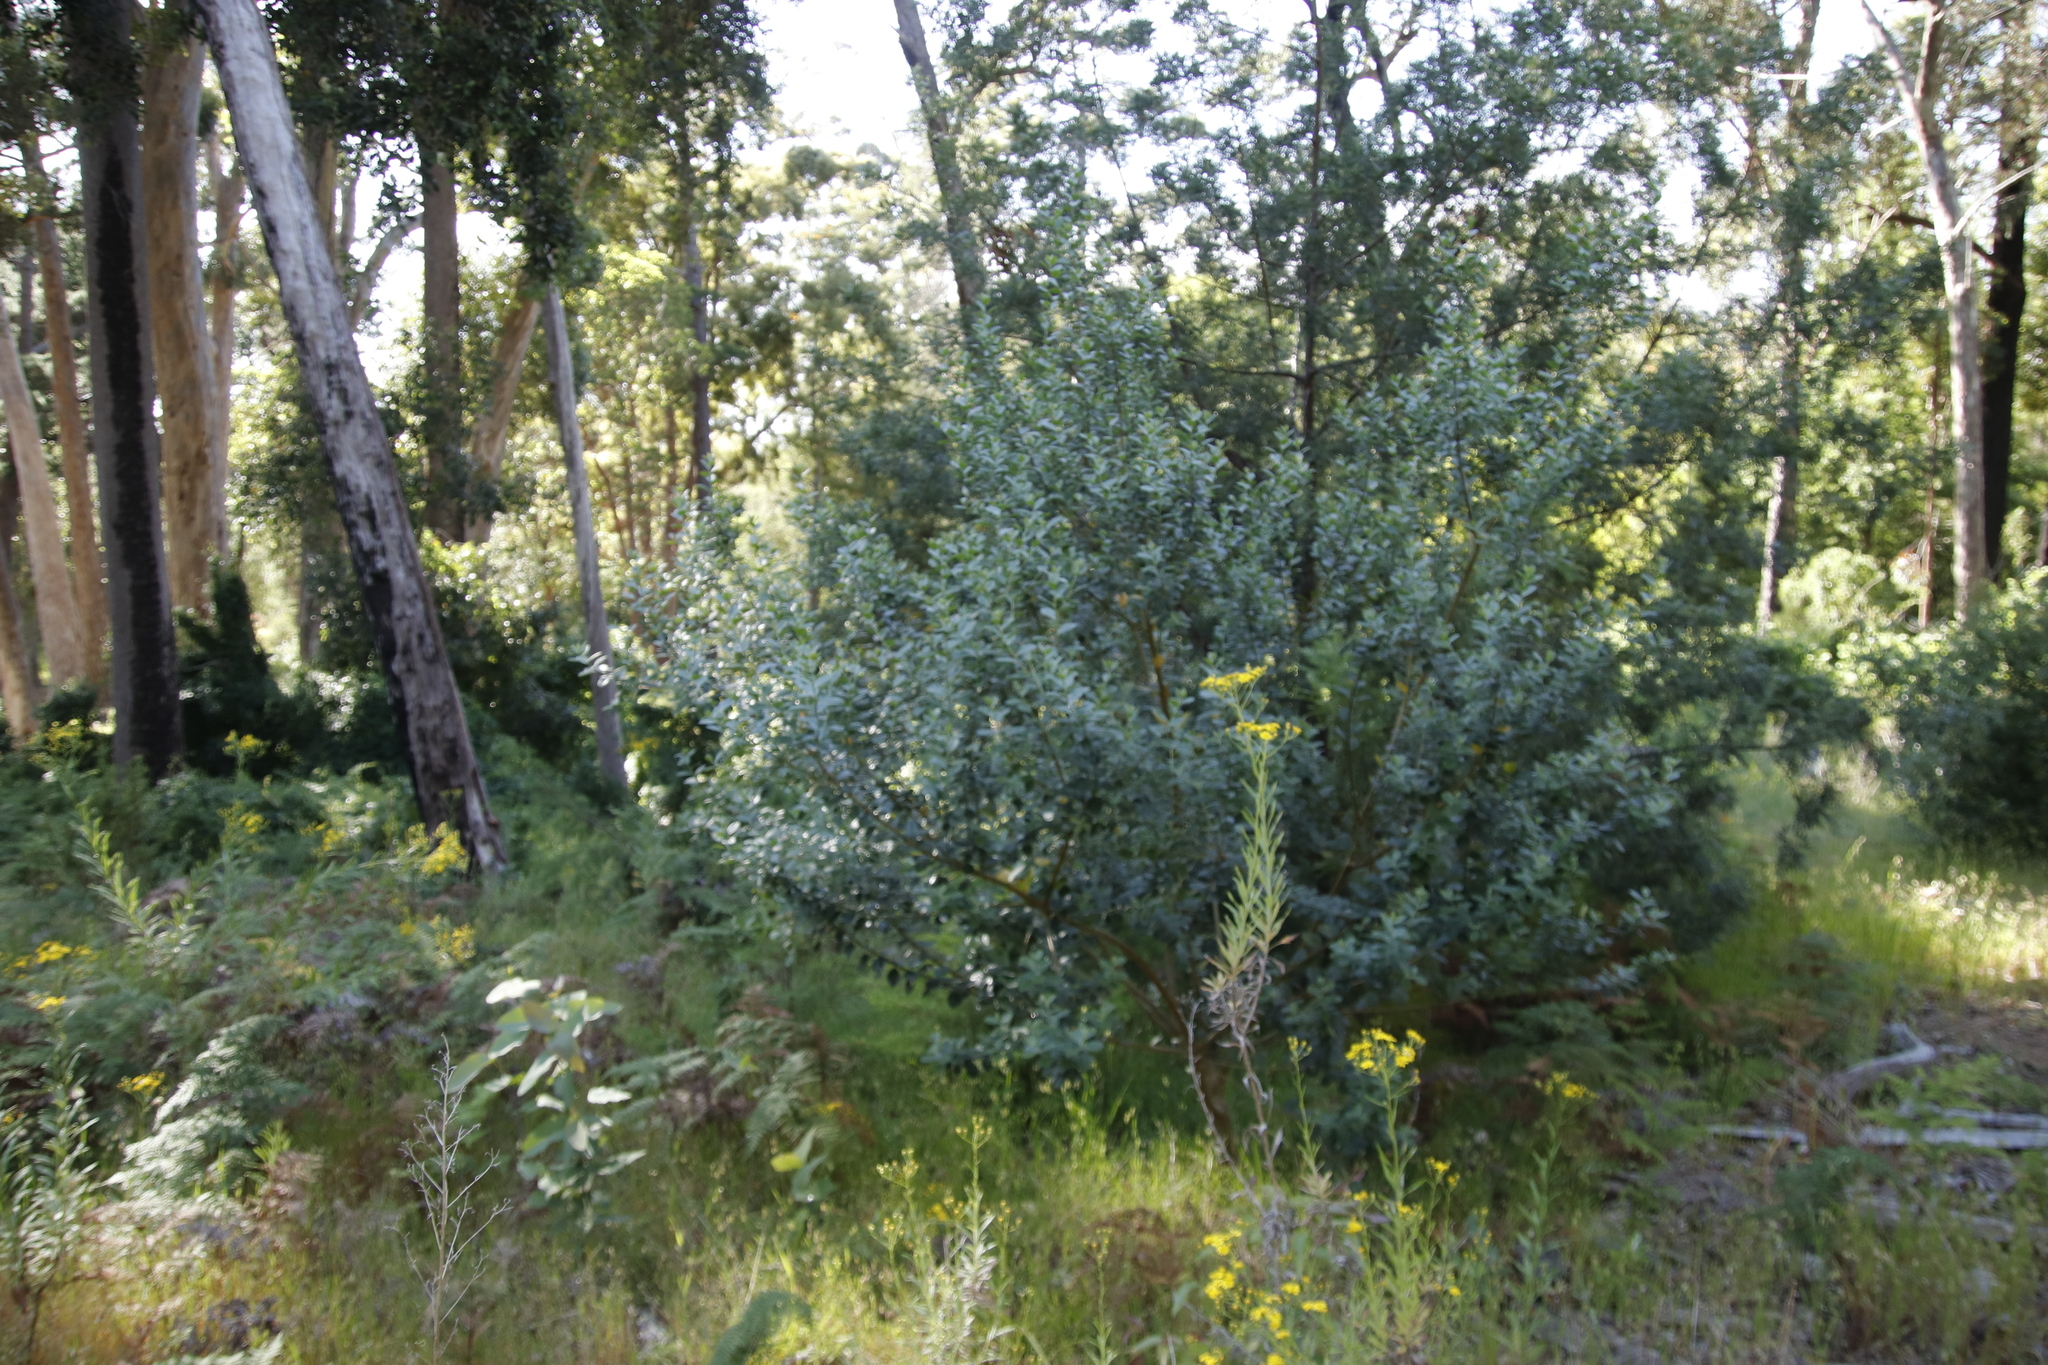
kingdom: Plantae
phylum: Tracheophyta
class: Magnoliopsida
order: Fabales
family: Fabaceae
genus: Podalyria
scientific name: Podalyria calyptrata
